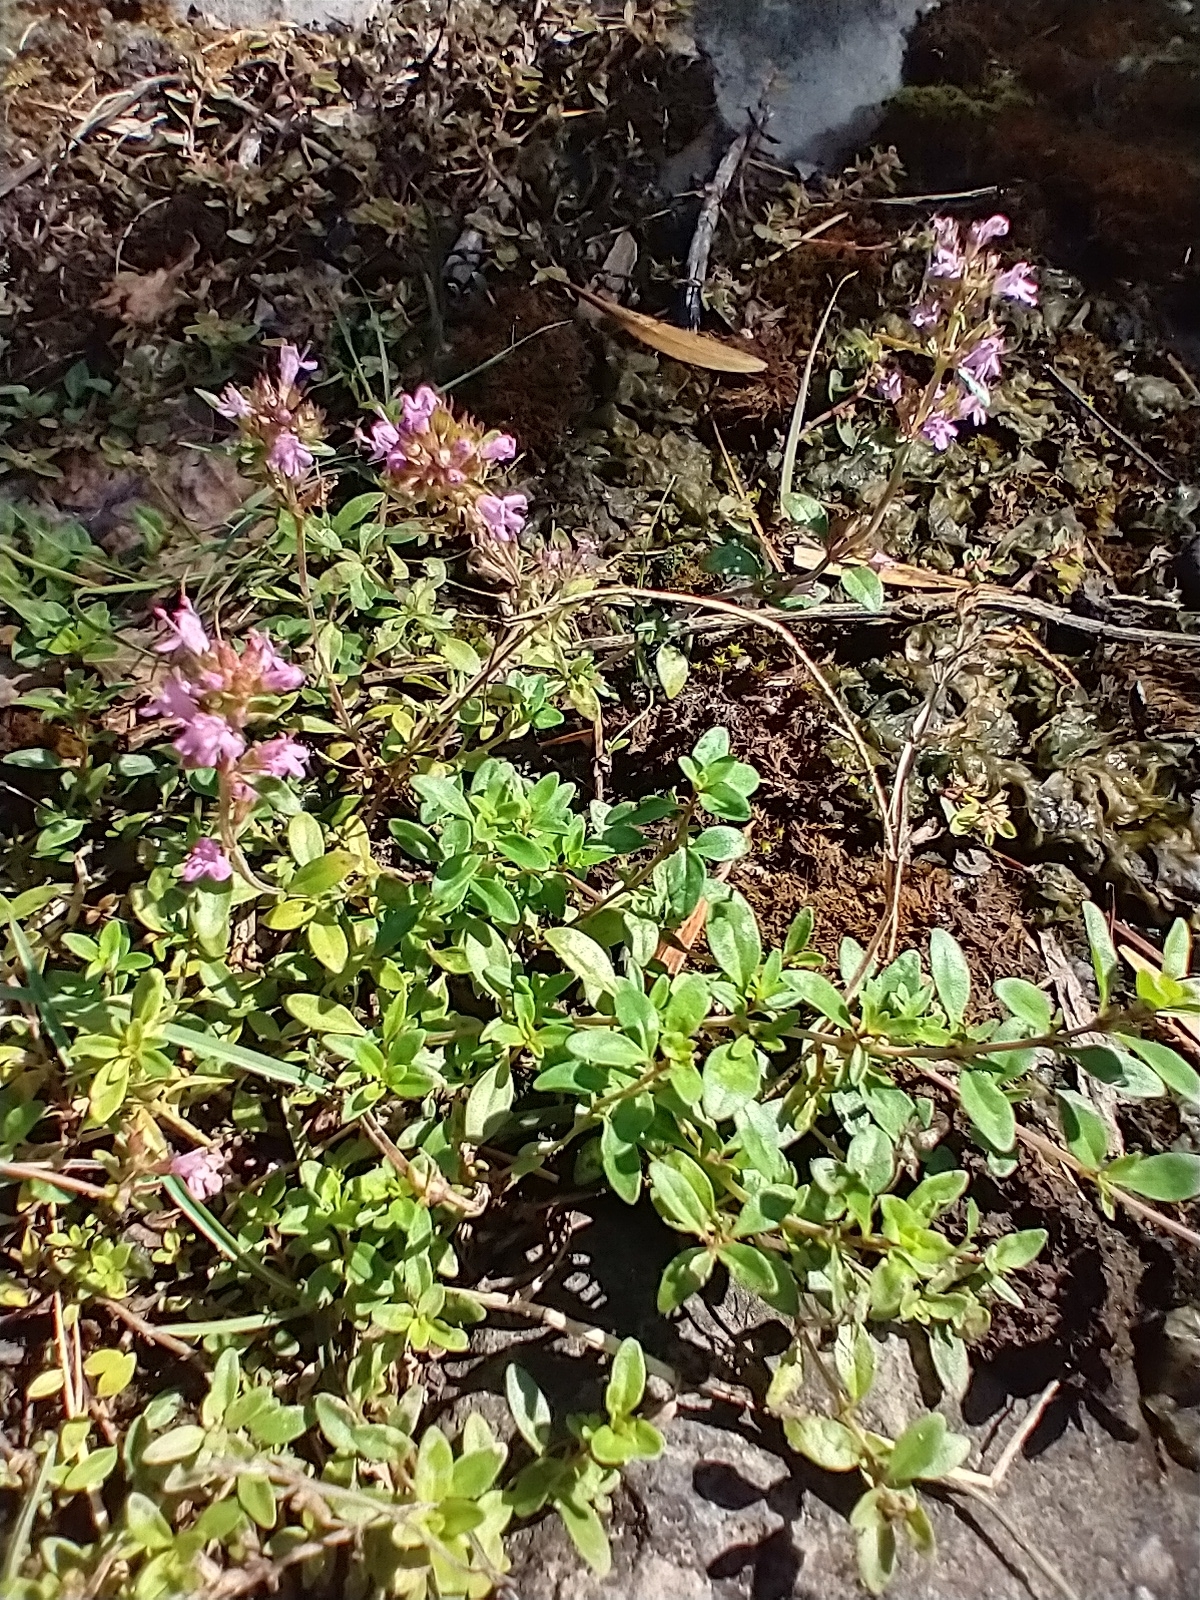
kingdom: Plantae
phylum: Tracheophyta
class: Magnoliopsida
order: Lamiales
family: Lamiaceae
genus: Thymus
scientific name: Thymus pulegioides
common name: Large thyme
